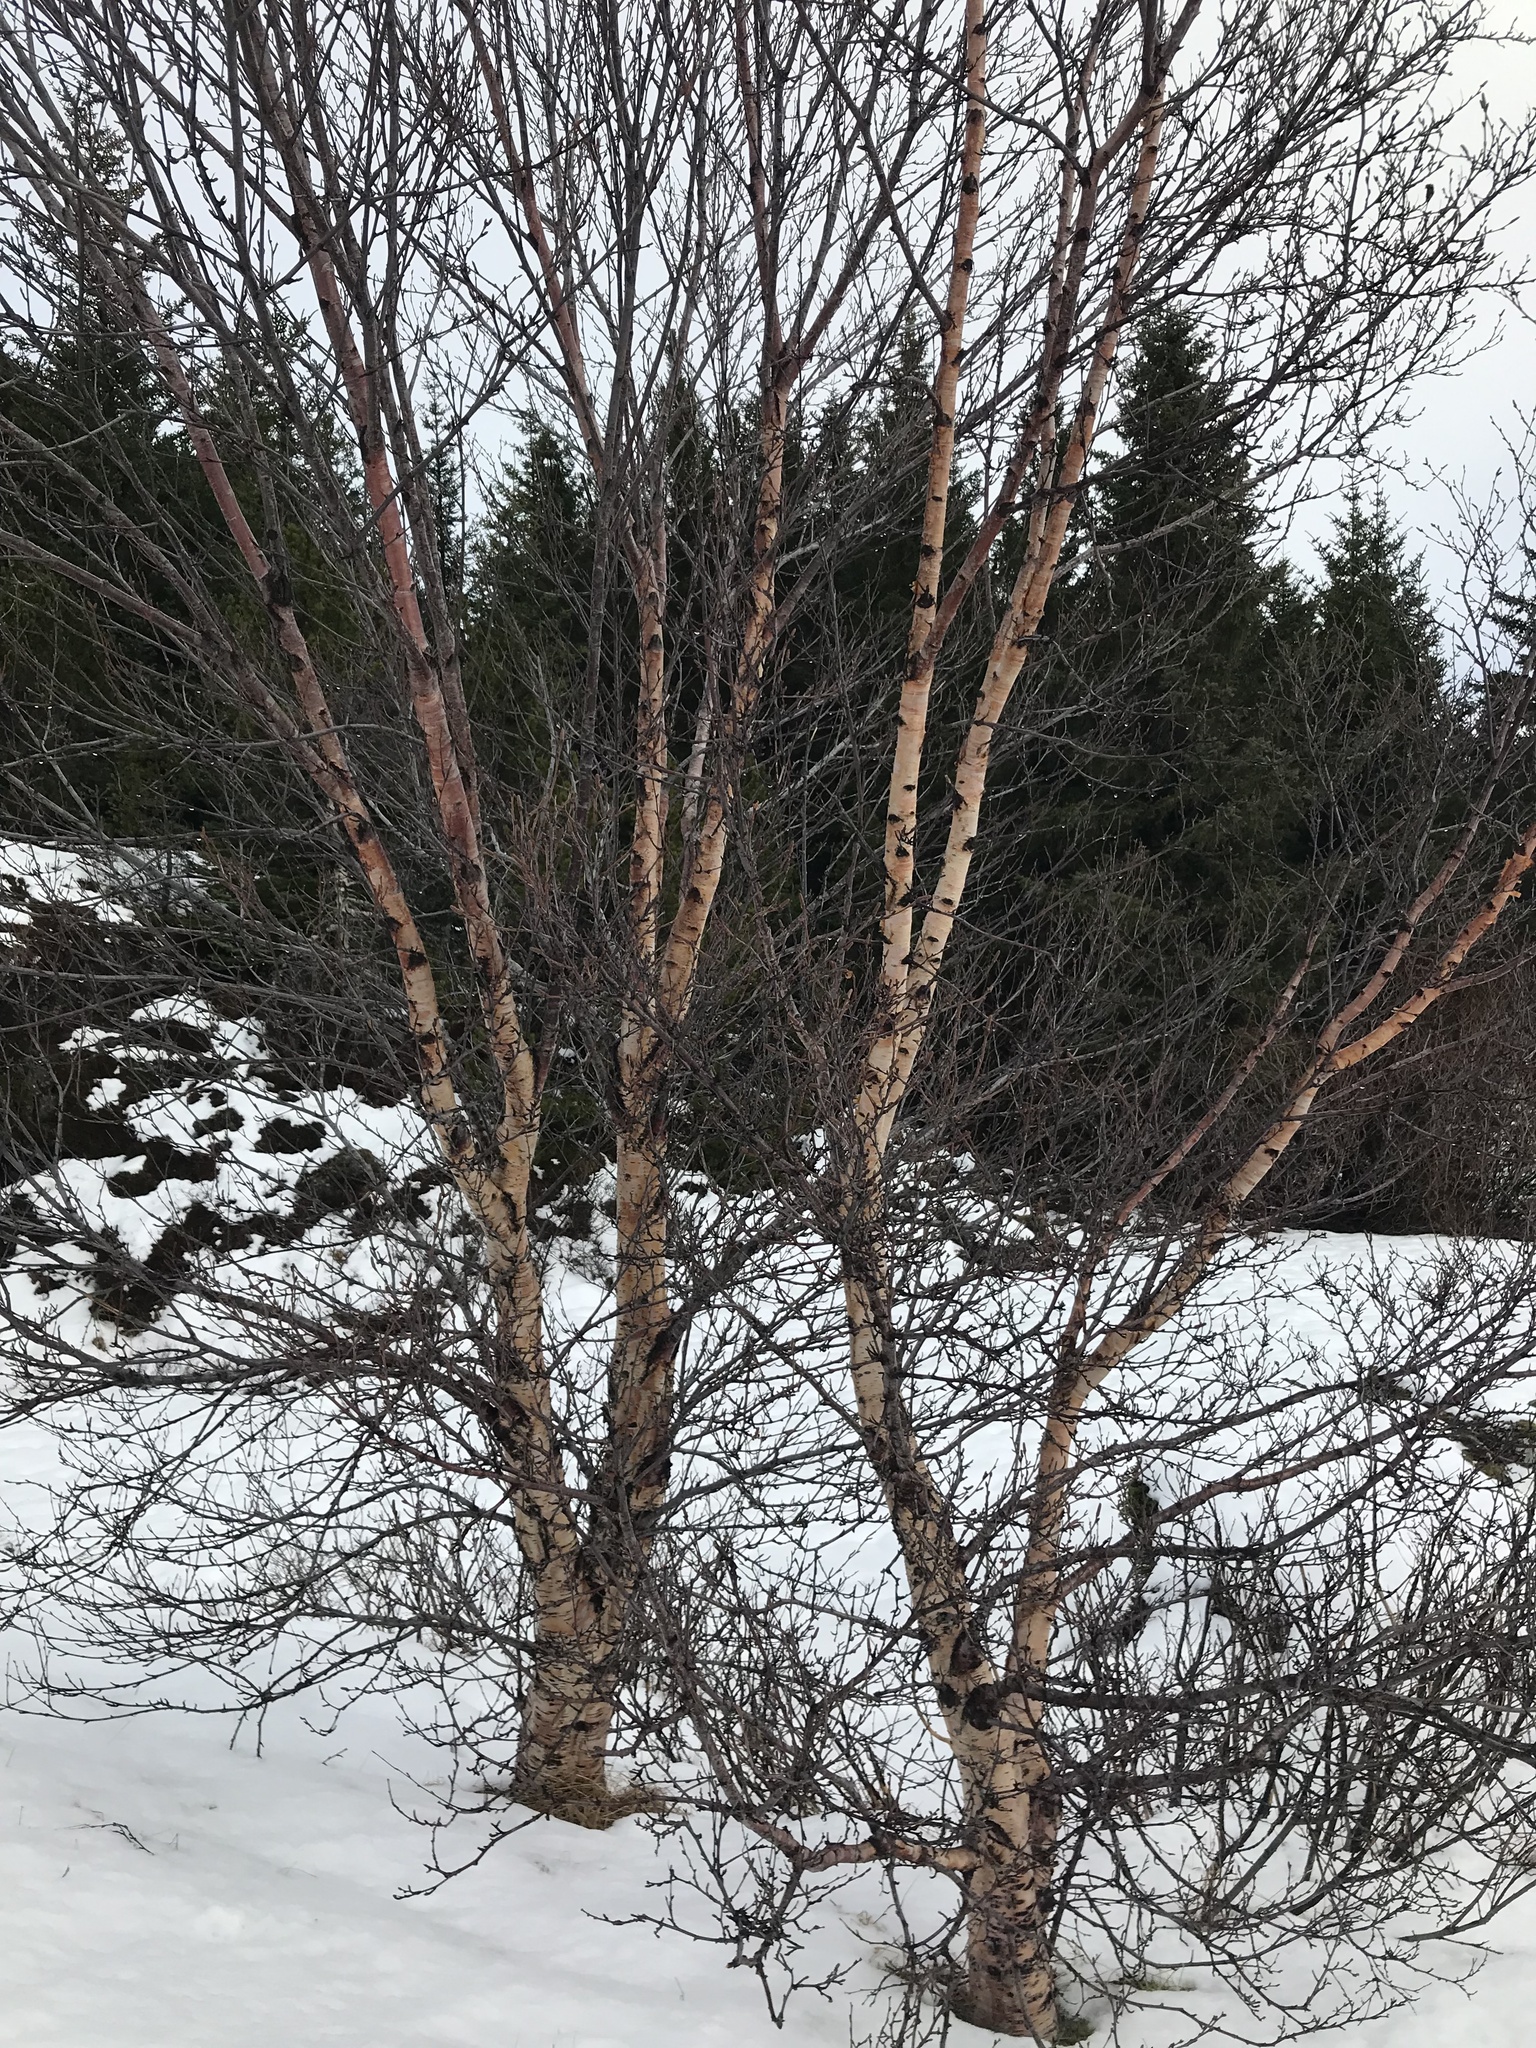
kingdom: Plantae
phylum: Tracheophyta
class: Magnoliopsida
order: Fagales
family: Betulaceae
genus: Betula
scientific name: Betula pubescens
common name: Downy birch
